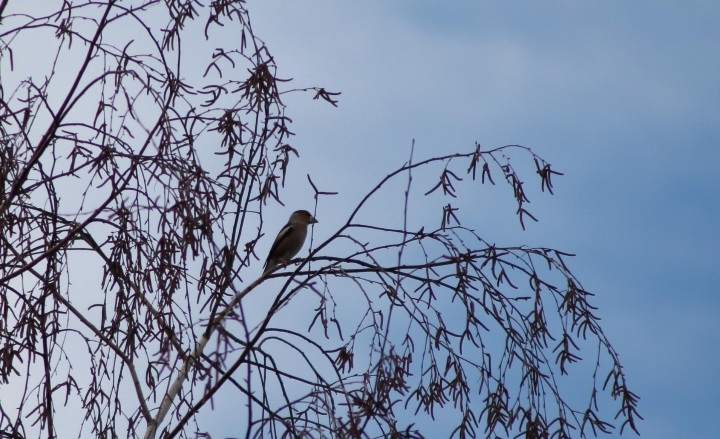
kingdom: Animalia
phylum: Chordata
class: Aves
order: Passeriformes
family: Fringillidae
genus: Coccothraustes
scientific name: Coccothraustes coccothraustes
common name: Hawfinch
